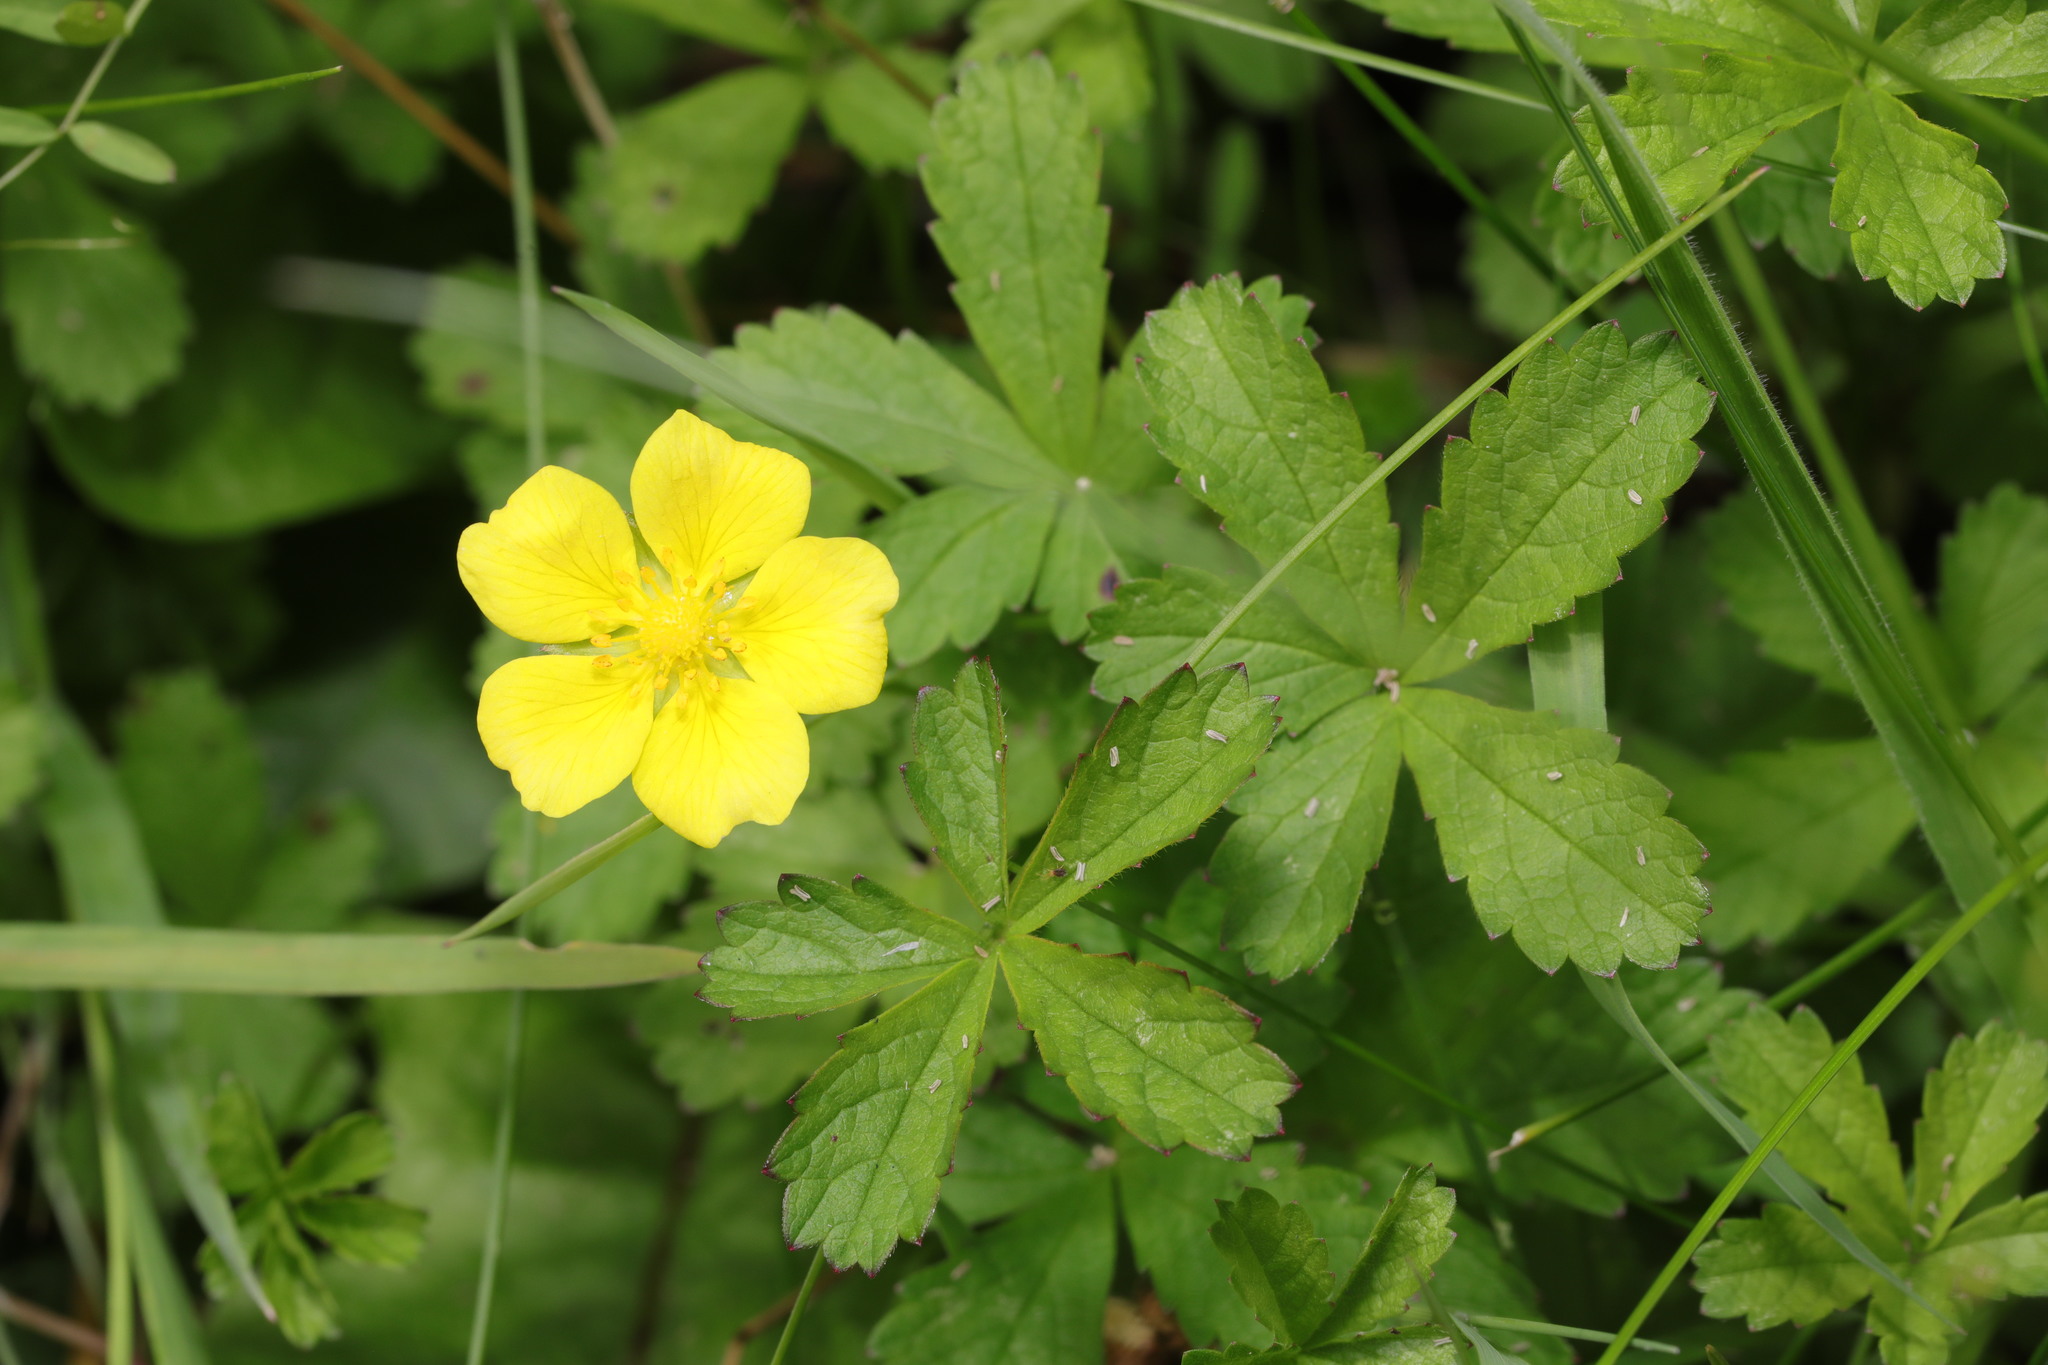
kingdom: Plantae
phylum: Tracheophyta
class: Magnoliopsida
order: Rosales
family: Rosaceae
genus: Potentilla
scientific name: Potentilla reptans
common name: Creeping cinquefoil
